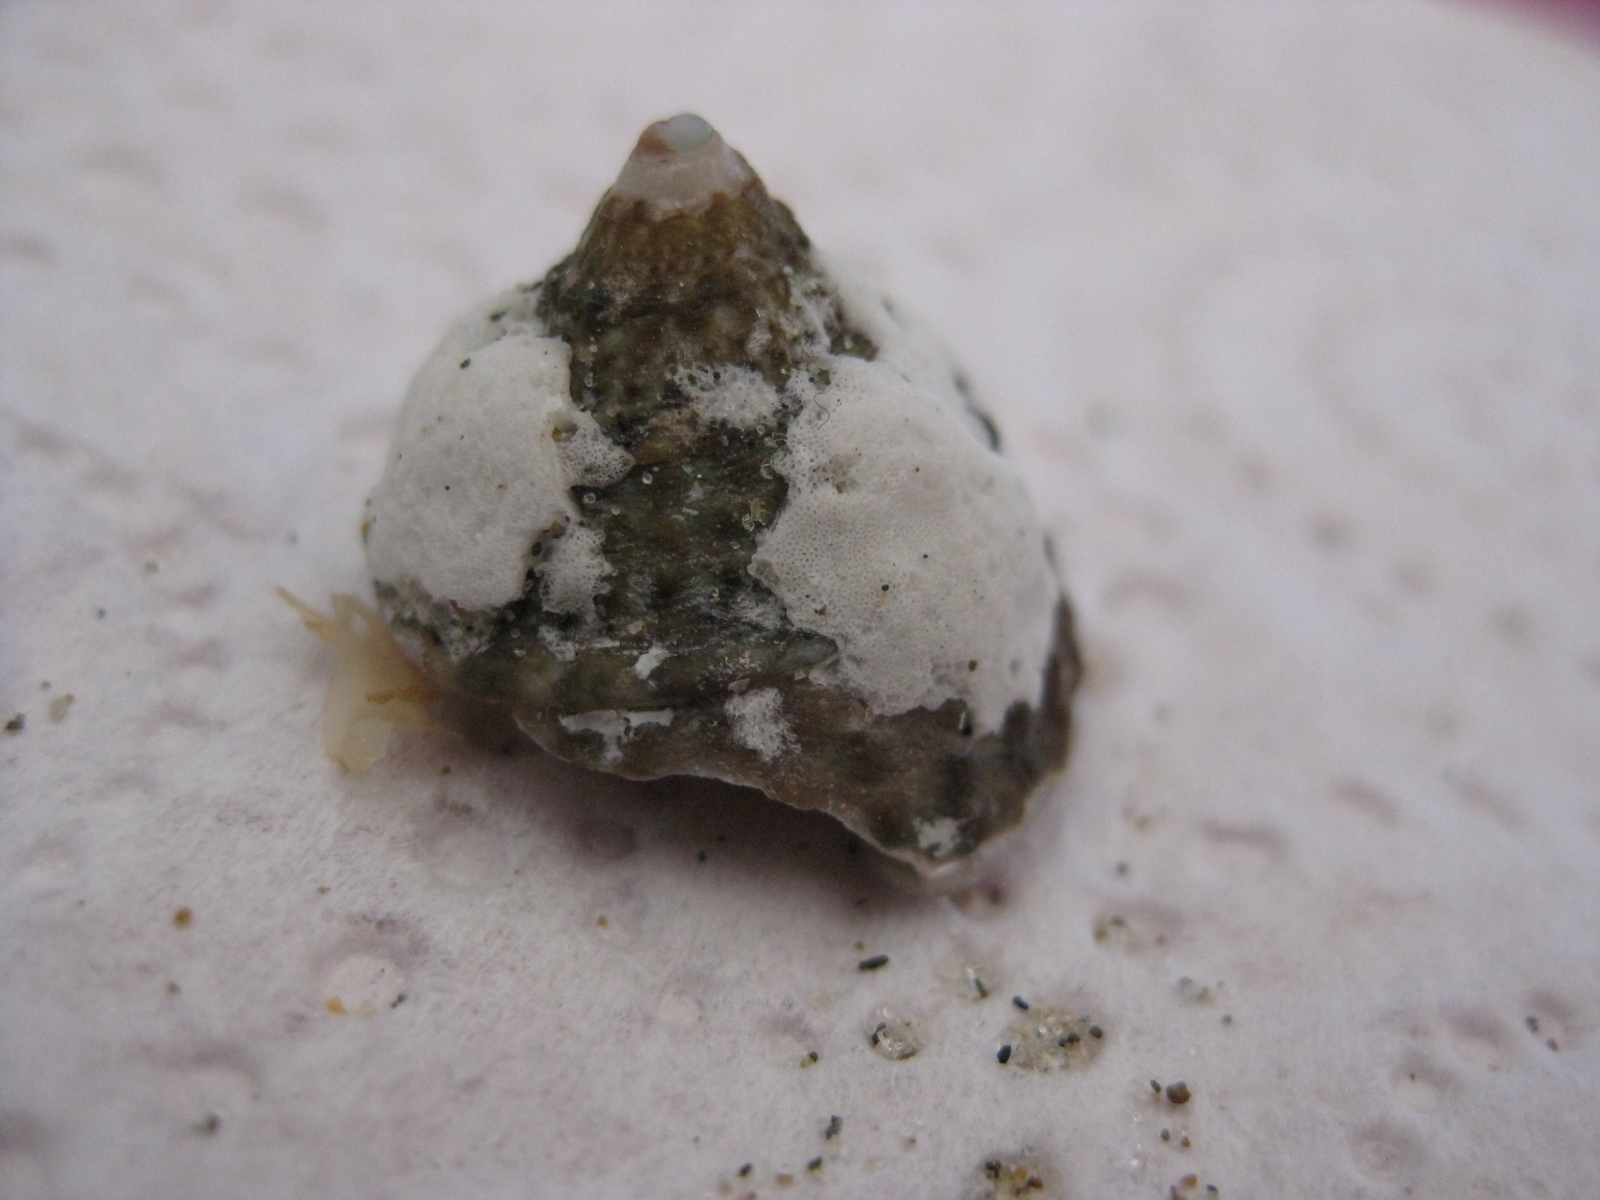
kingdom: Animalia
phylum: Mollusca
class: Gastropoda
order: Trochida
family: Trochidae
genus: Coelotrochus
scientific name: Coelotrochus viridis
